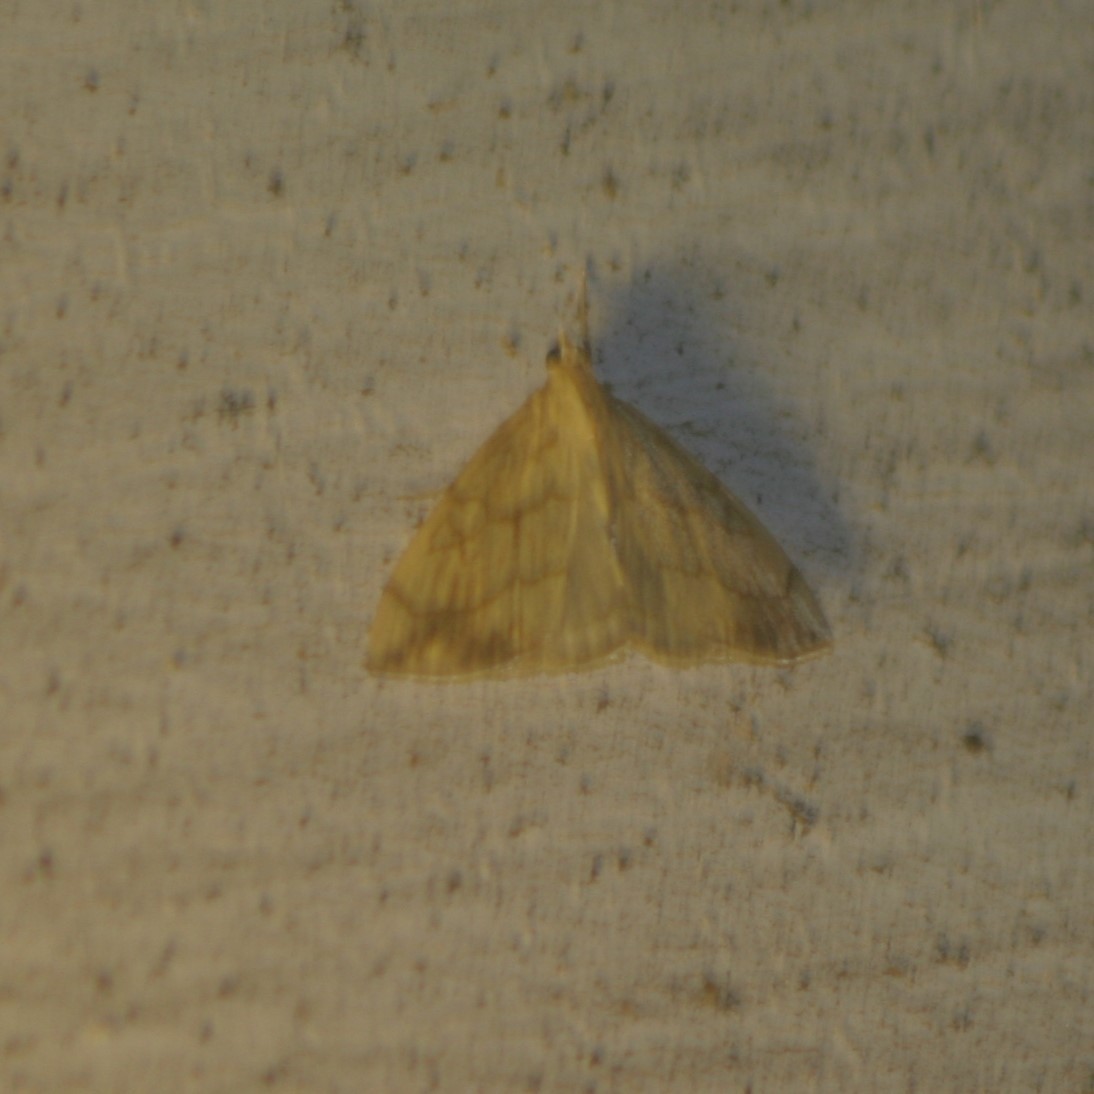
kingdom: Animalia
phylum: Arthropoda
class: Insecta
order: Lepidoptera
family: Crambidae
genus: Evergestis
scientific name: Evergestis pallidata
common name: Chequered pearl
